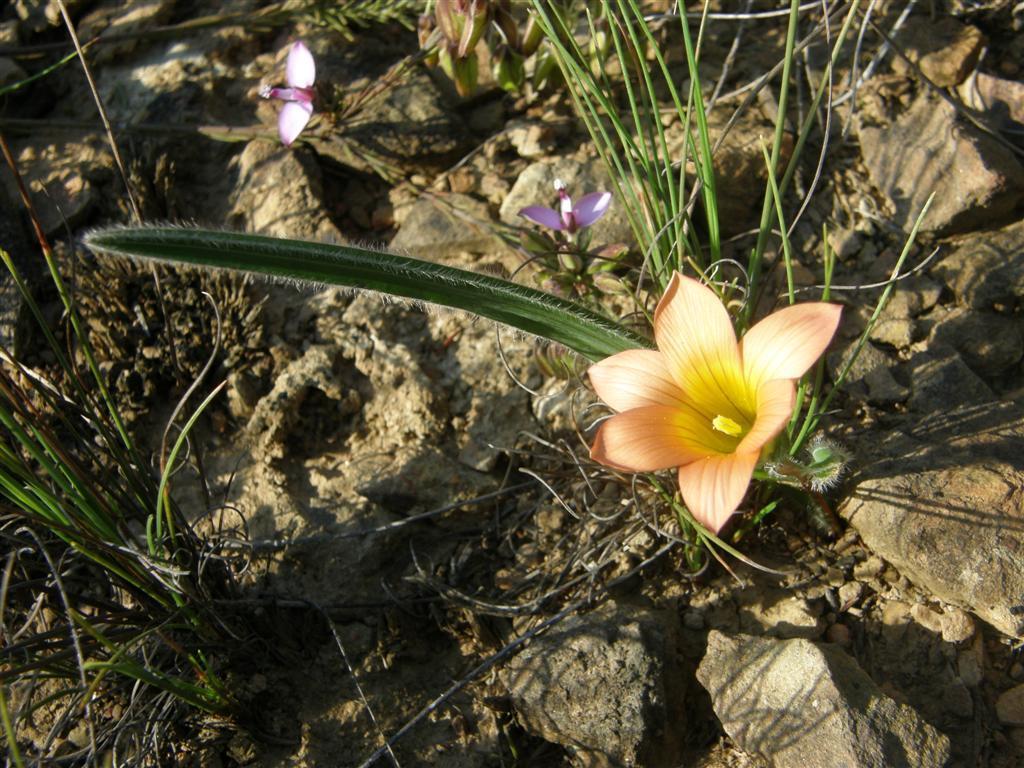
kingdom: Plantae
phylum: Tracheophyta
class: Liliopsida
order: Asparagales
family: Iridaceae
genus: Romulea
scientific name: Romulea pilosa
